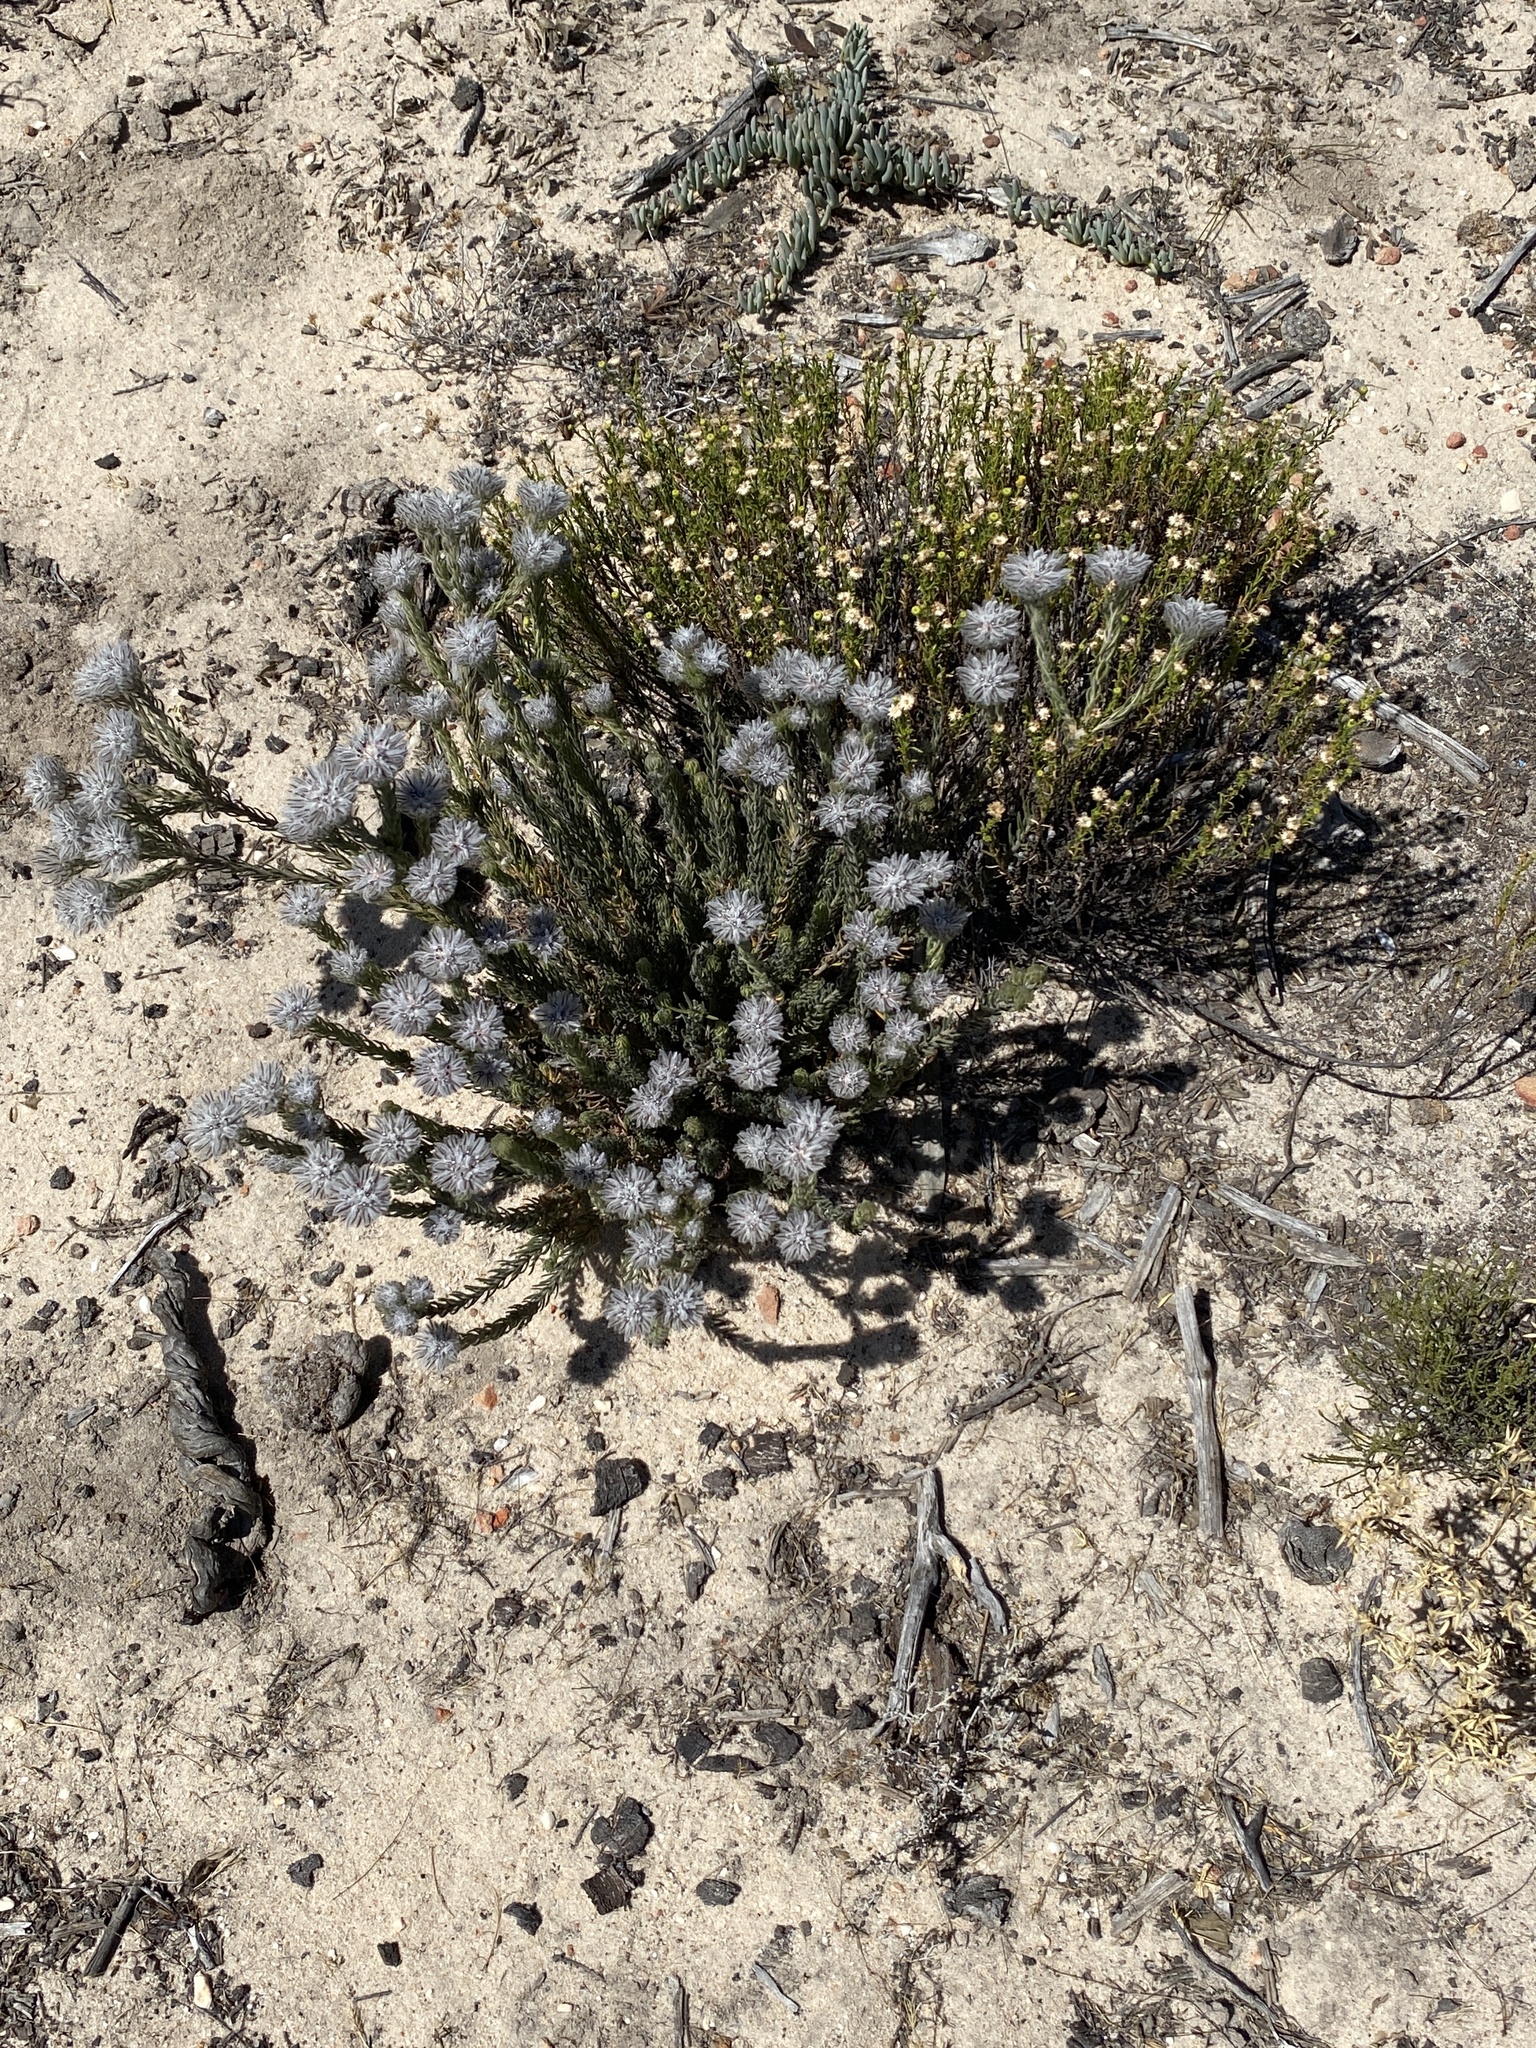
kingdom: Plantae
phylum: Tracheophyta
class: Magnoliopsida
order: Rosales
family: Rhamnaceae
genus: Phylica
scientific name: Phylica leipoldtii
